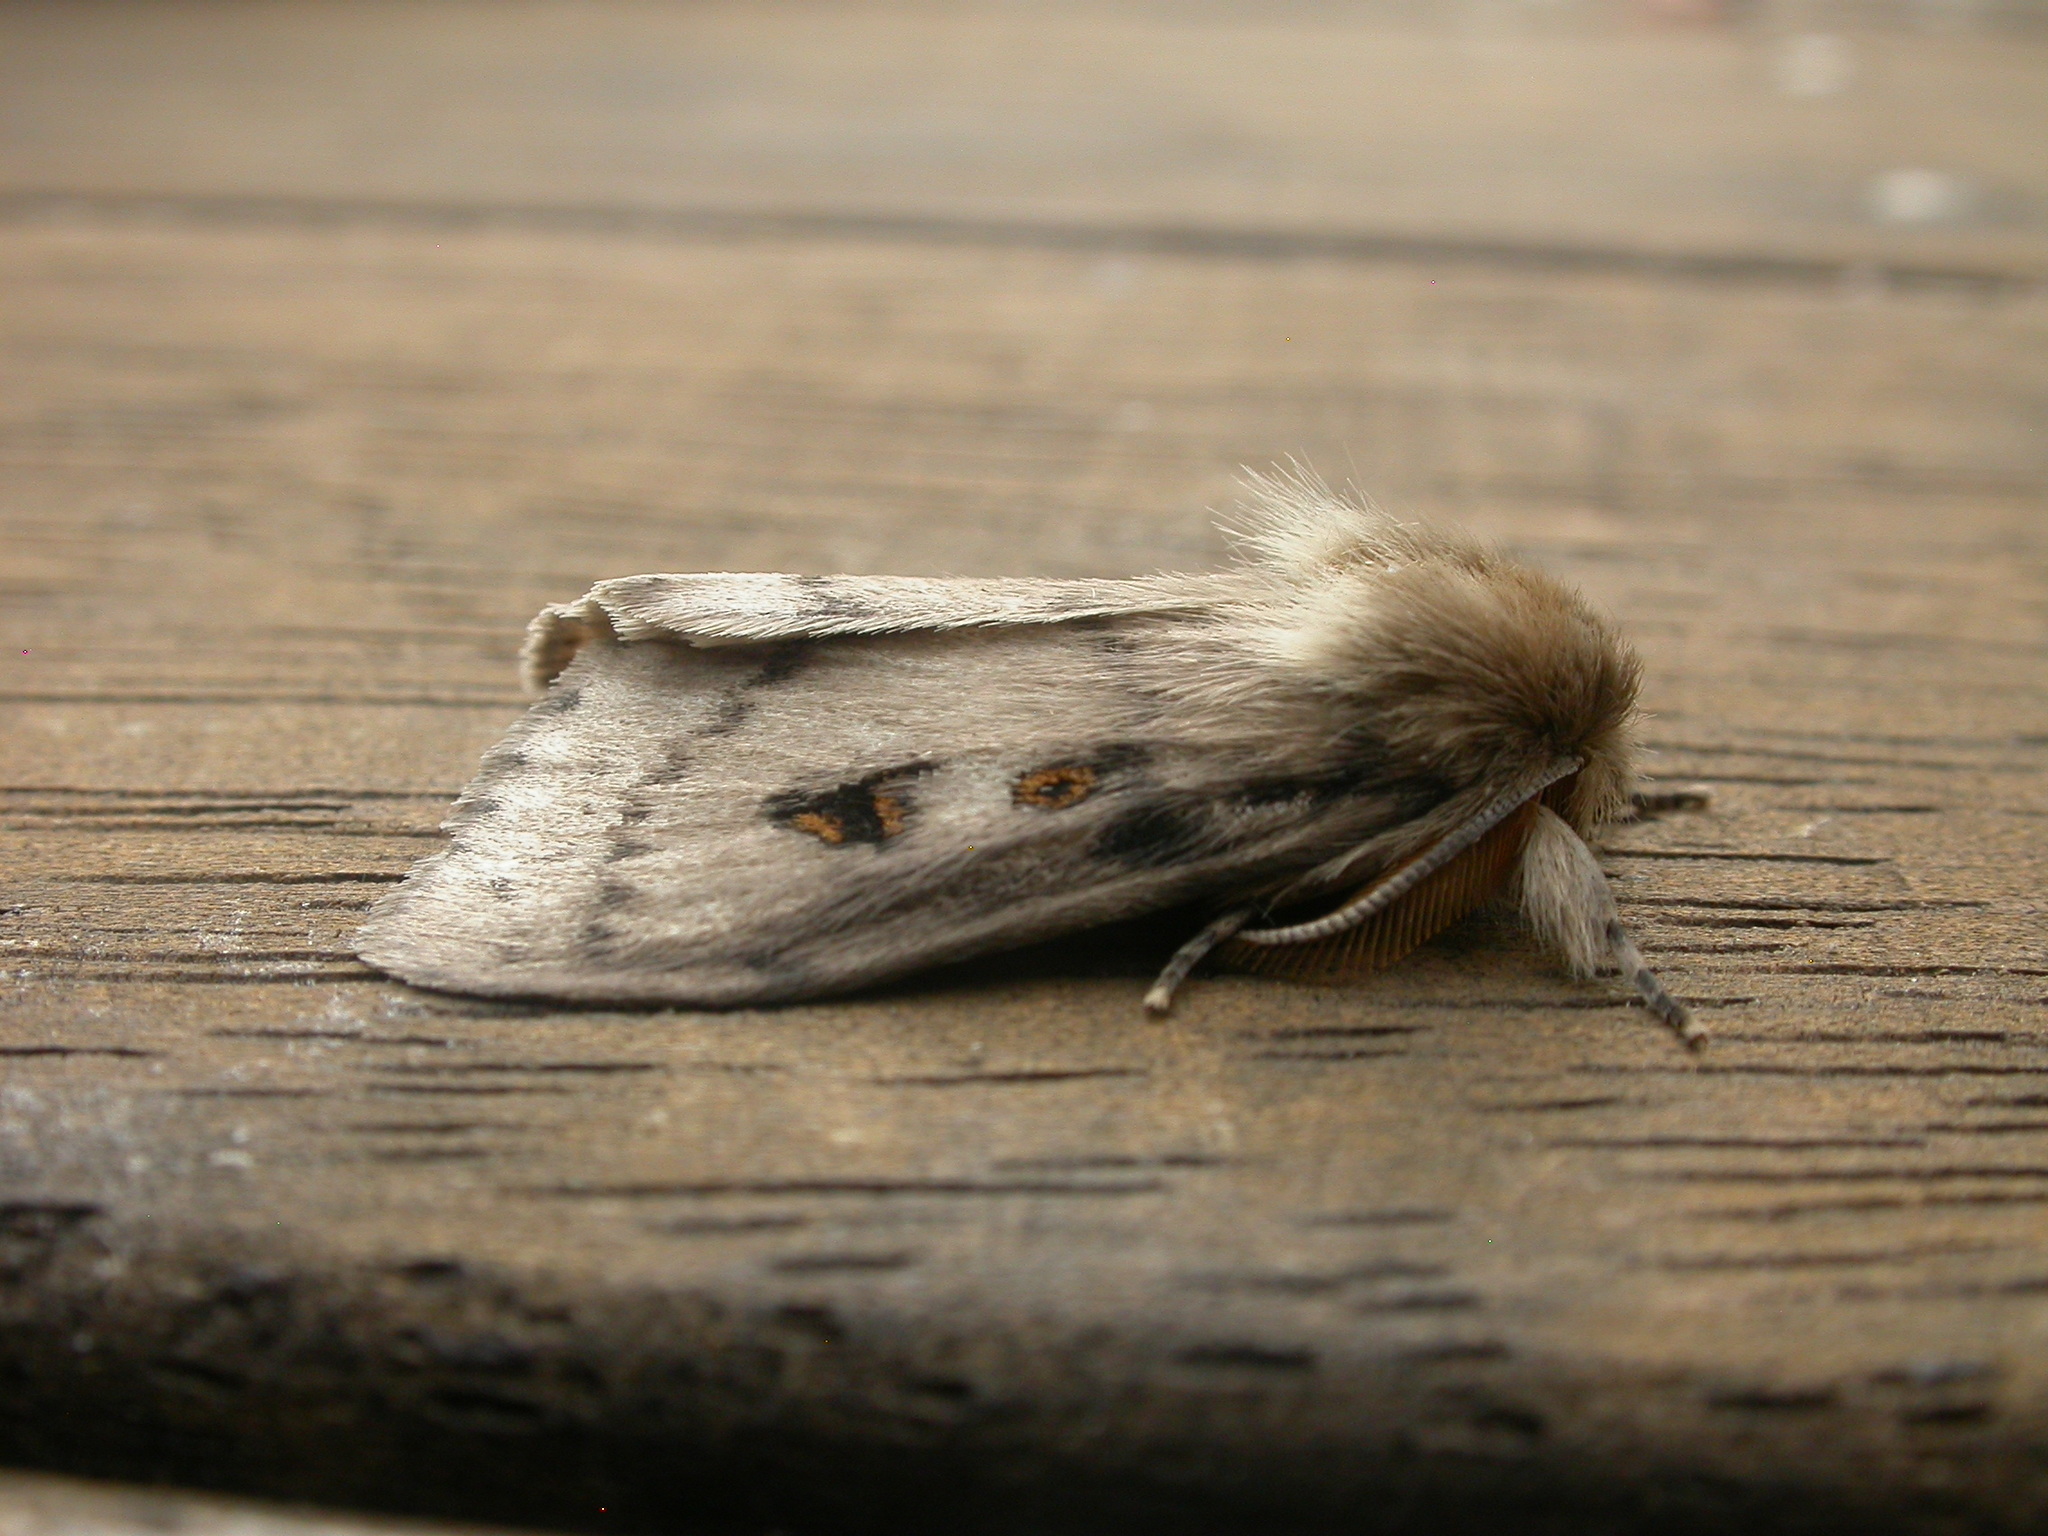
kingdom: Animalia
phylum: Arthropoda
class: Insecta
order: Lepidoptera
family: Erebidae
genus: Leptocneria
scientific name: Leptocneria reducta
